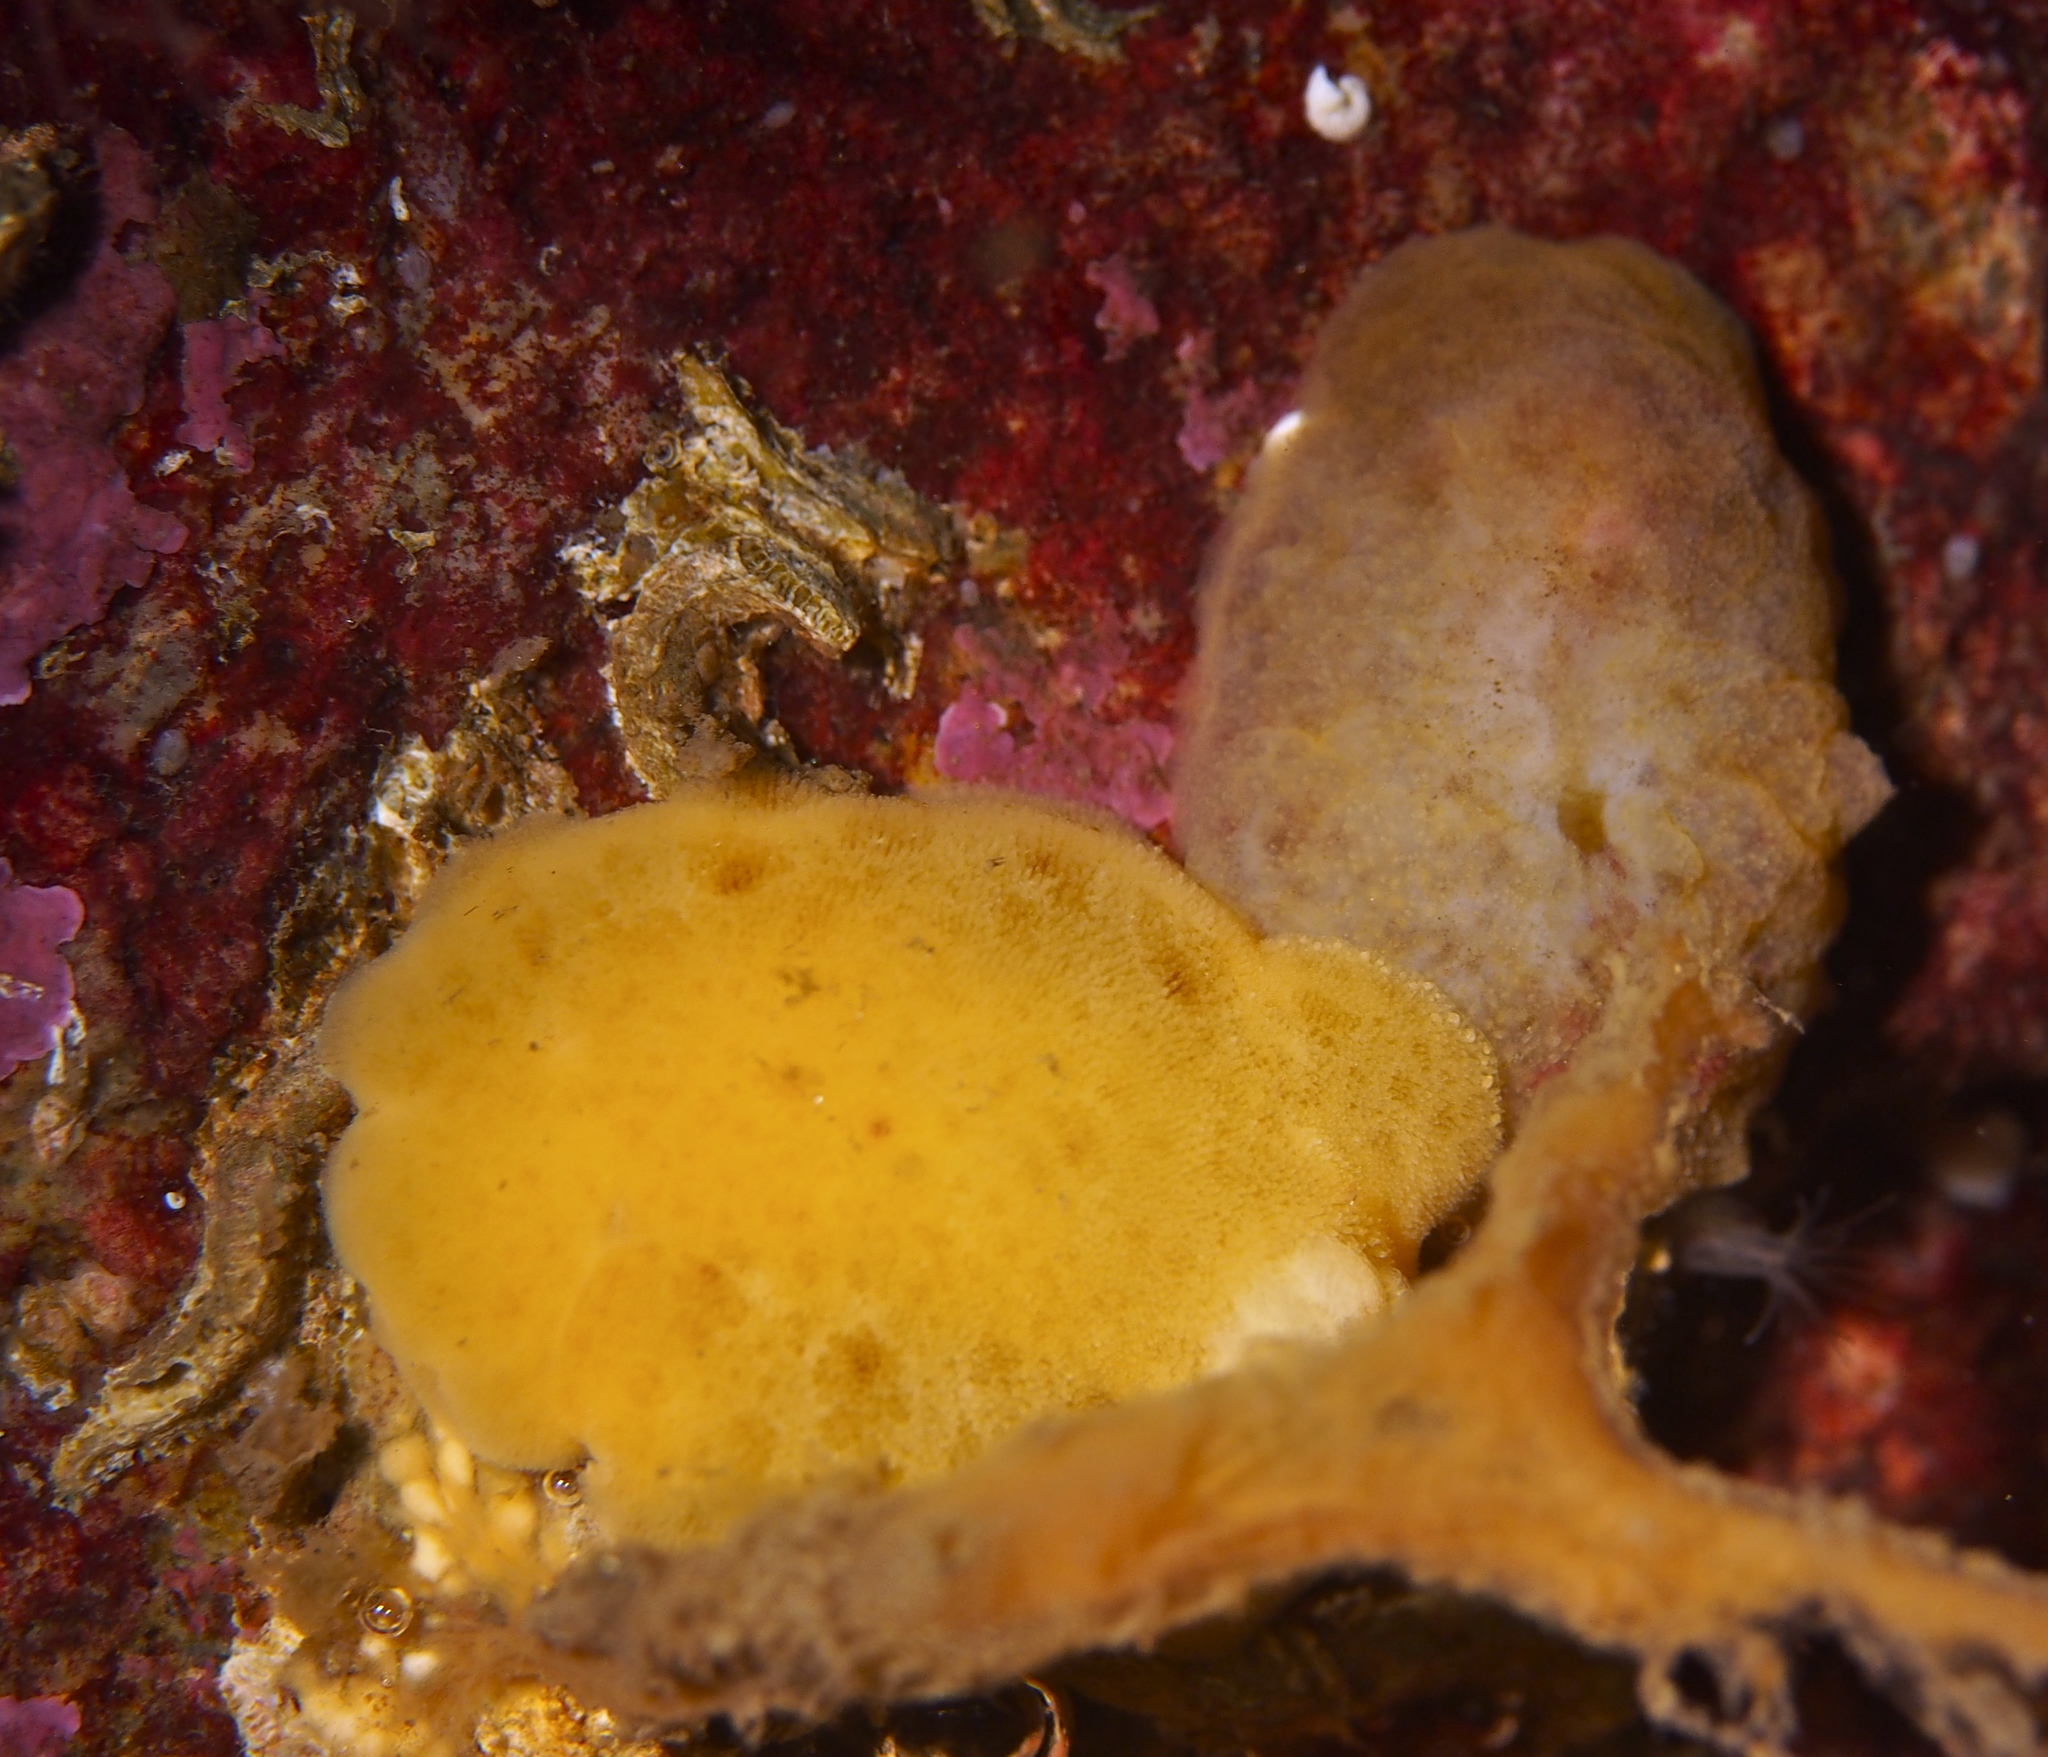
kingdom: Animalia
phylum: Mollusca
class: Gastropoda
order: Nudibranchia
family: Discodorididae
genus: Jorunna
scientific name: Jorunna tomentosa
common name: Grey sea slug
